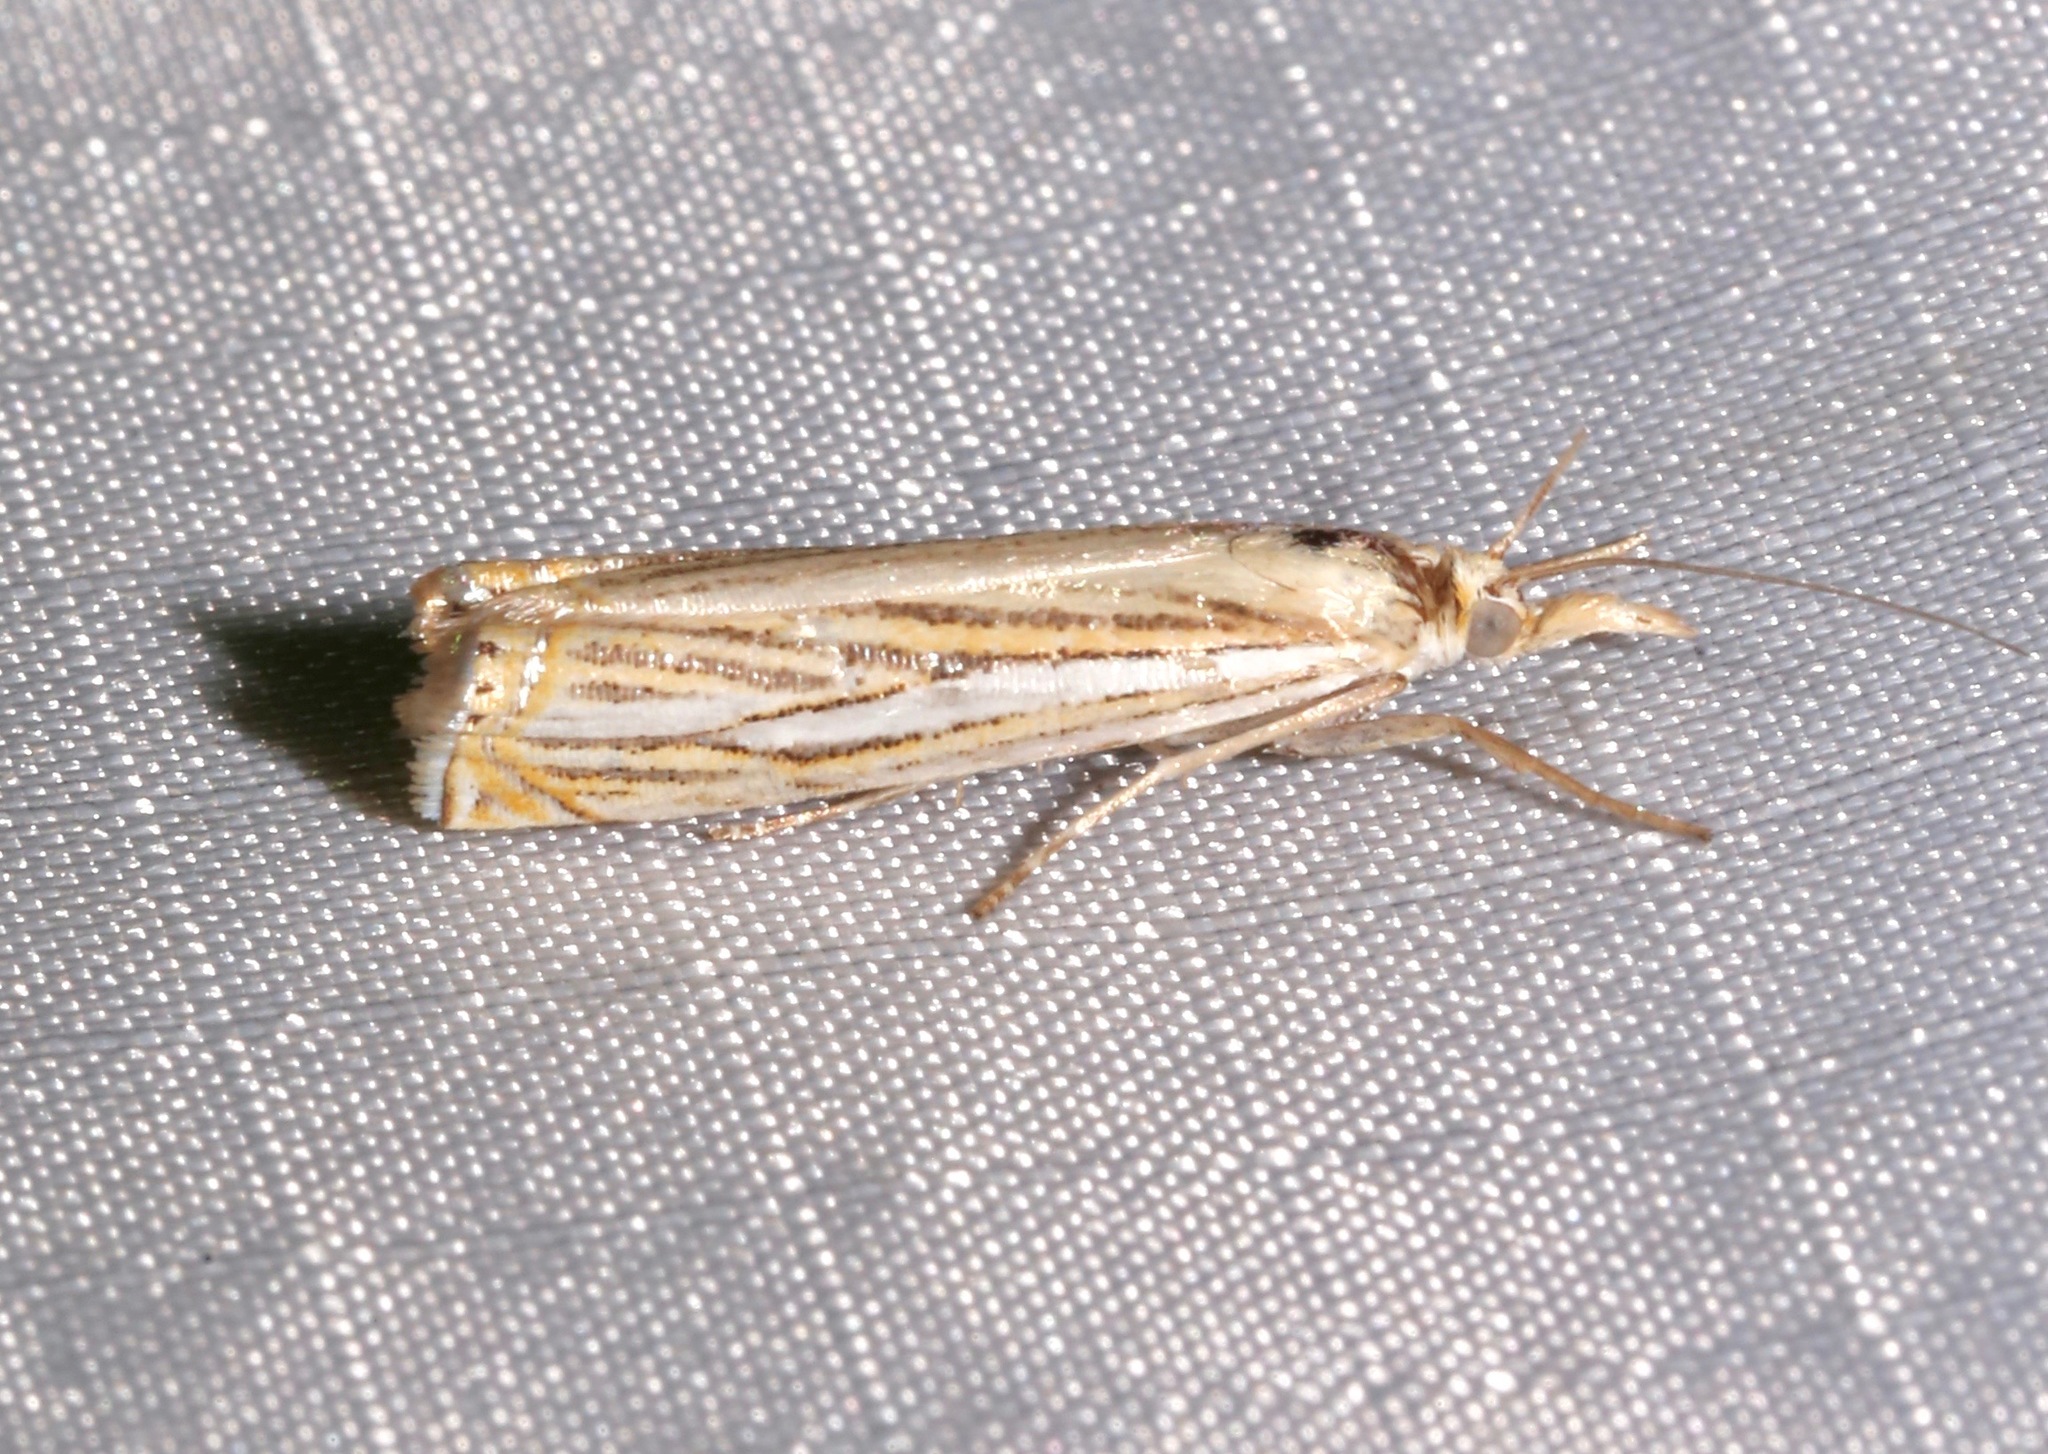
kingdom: Animalia
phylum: Arthropoda
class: Insecta
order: Lepidoptera
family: Crambidae
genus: Crambus
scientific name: Crambus multilinellus
